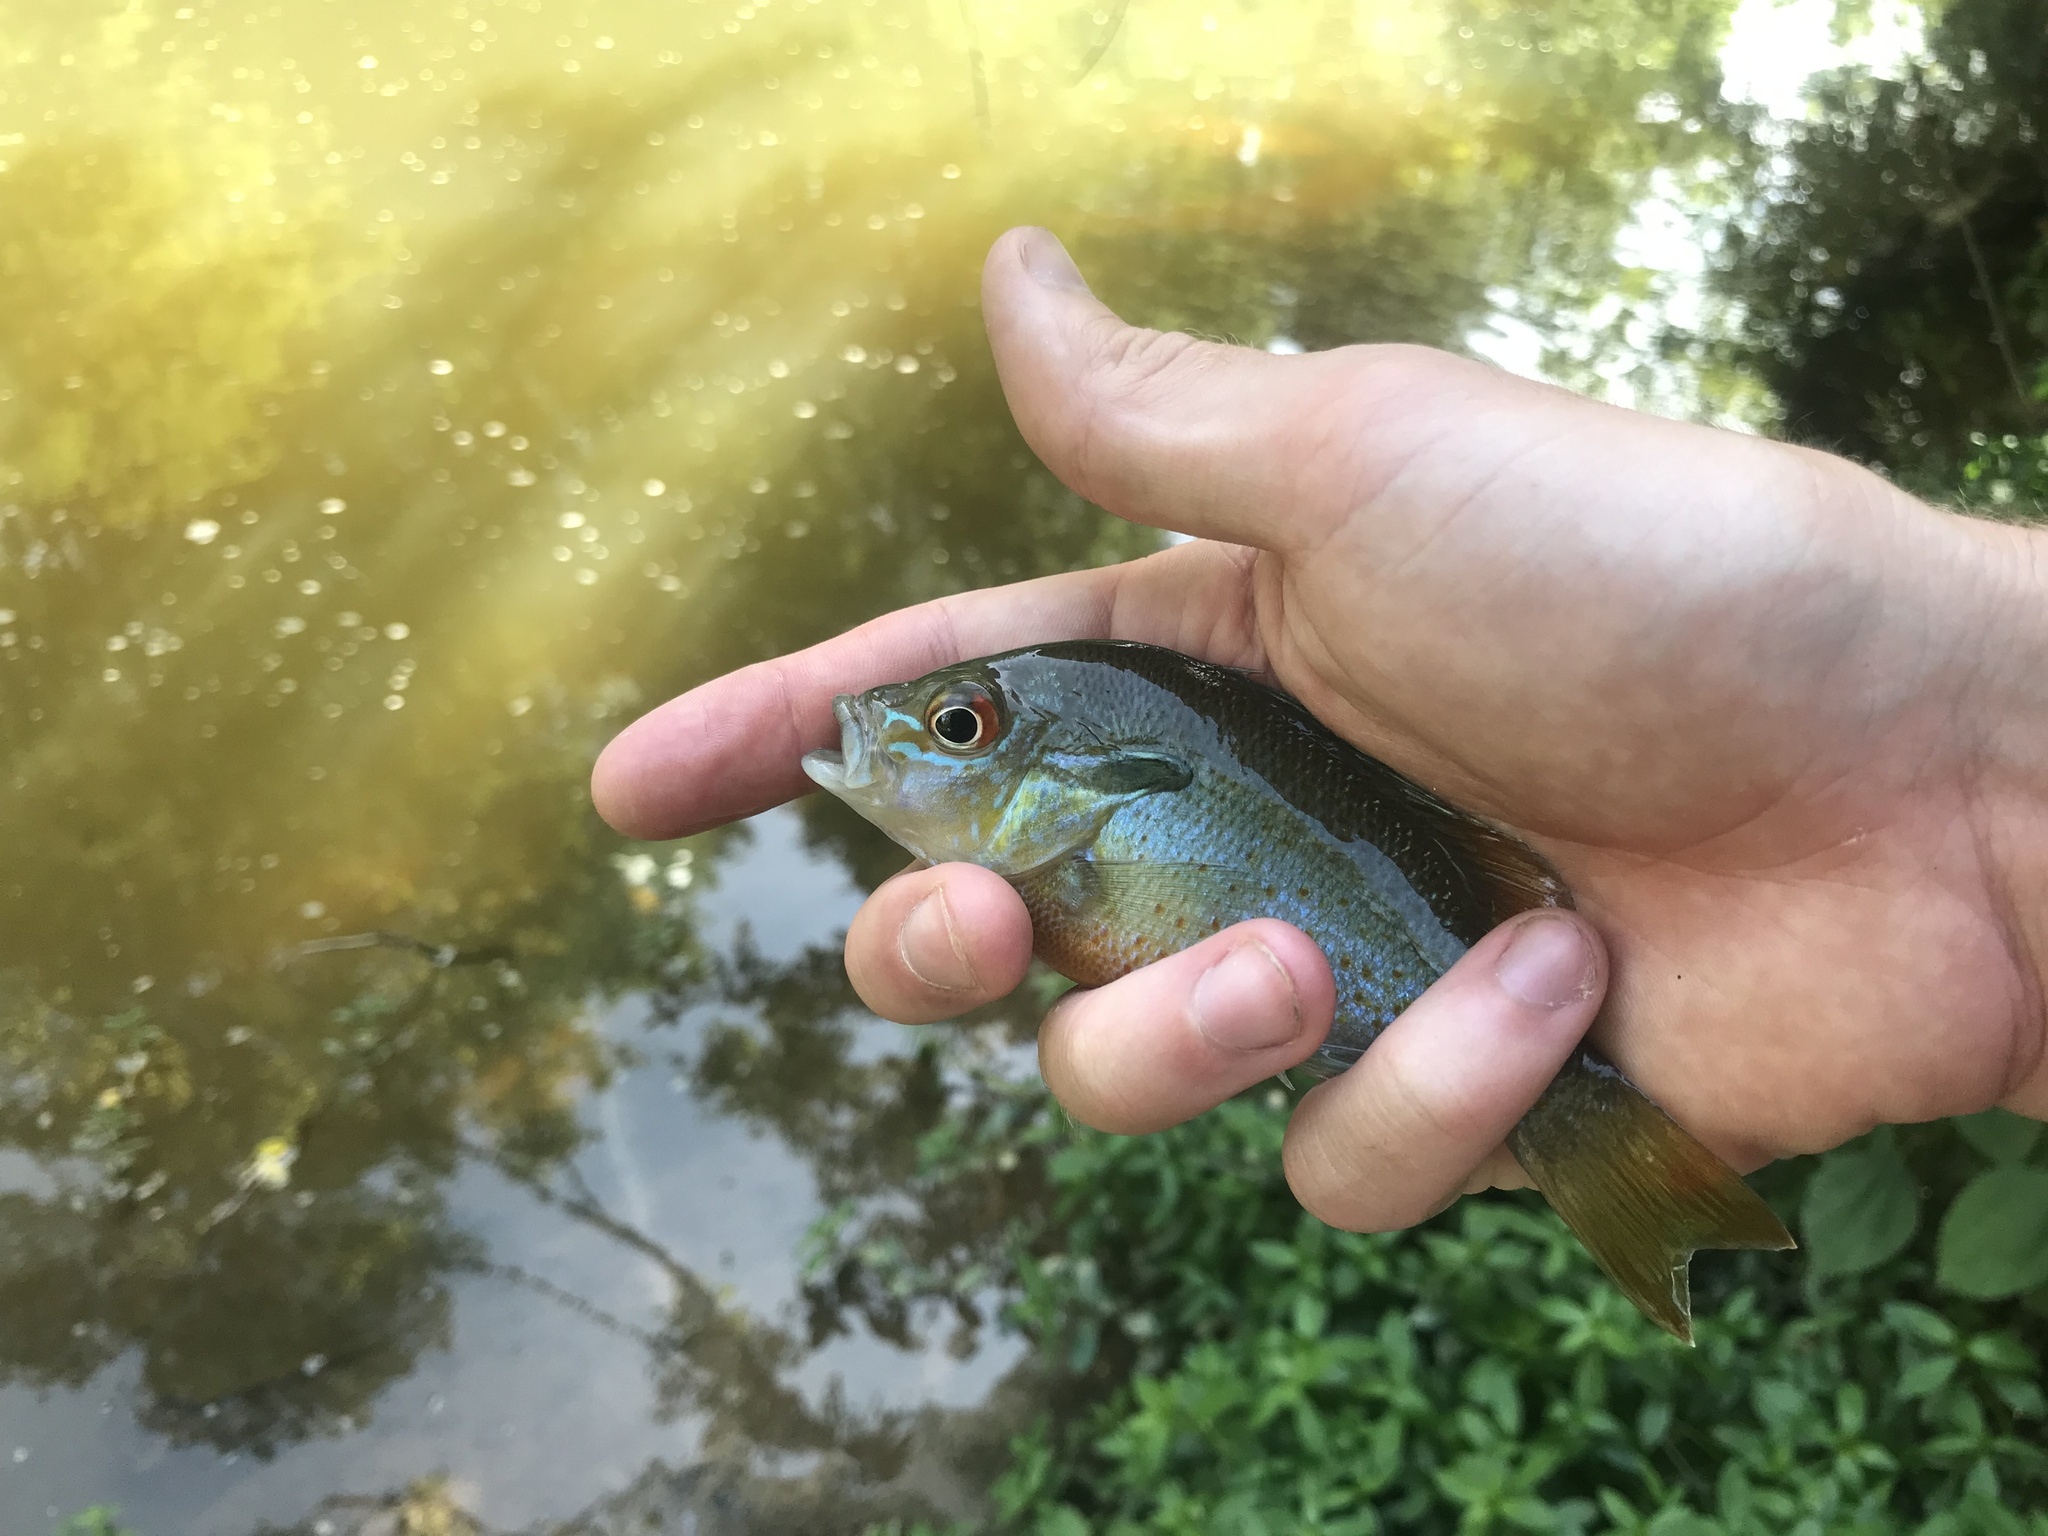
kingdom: Animalia
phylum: Chordata
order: Perciformes
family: Centrarchidae
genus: Lepomis
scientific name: Lepomis auritus
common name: Redbreast sunfish
